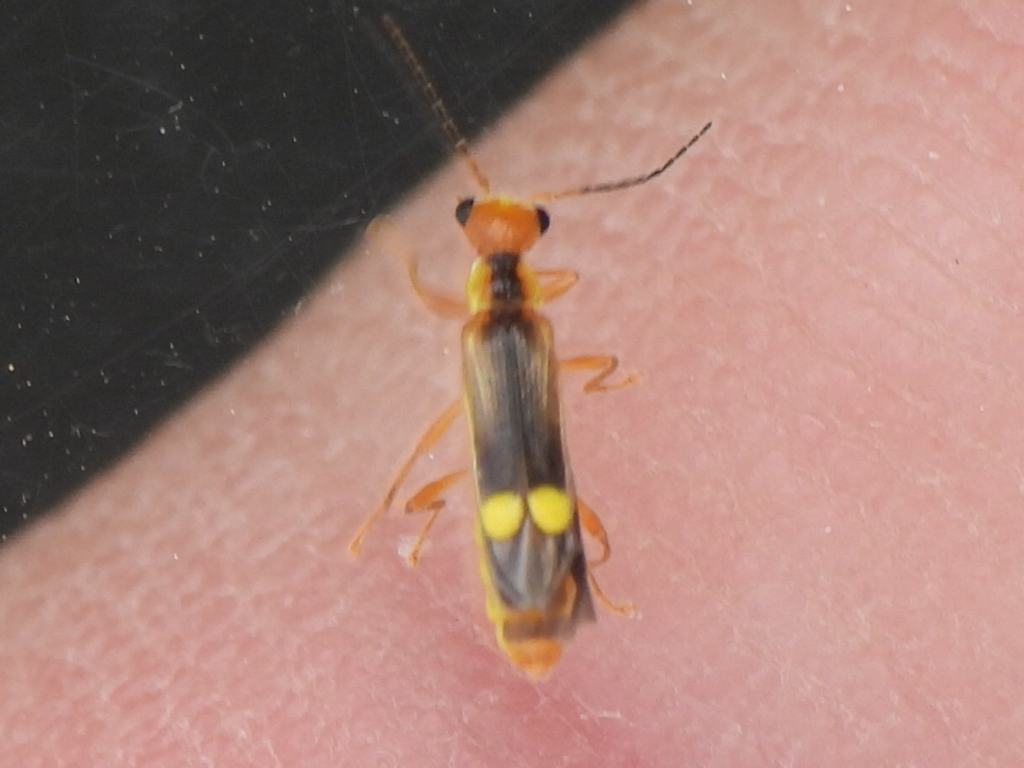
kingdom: Animalia
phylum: Arthropoda
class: Insecta
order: Coleoptera
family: Cantharidae
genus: Malthinus
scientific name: Malthinus occipitalis
